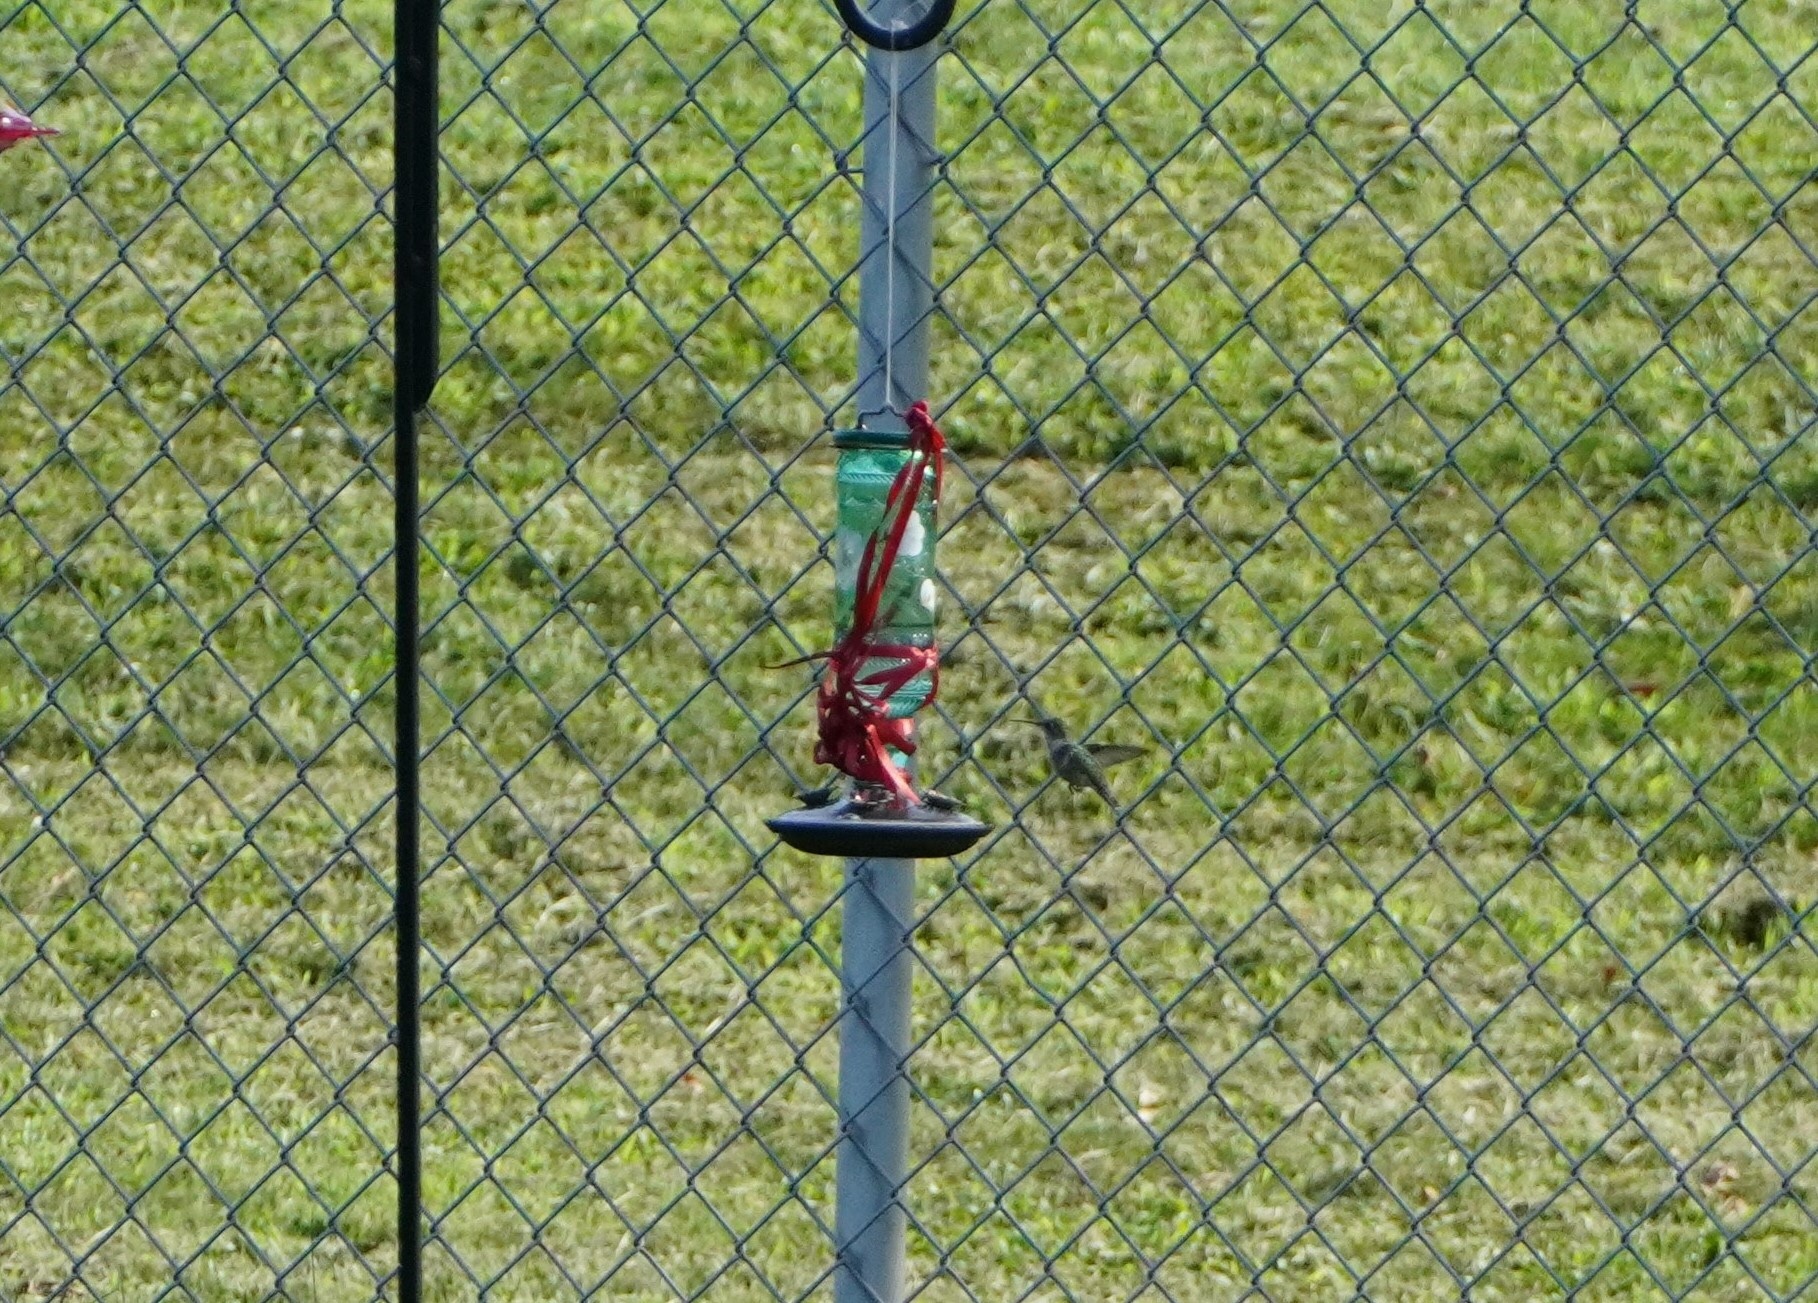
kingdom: Animalia
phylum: Chordata
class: Aves
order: Apodiformes
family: Trochilidae
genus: Archilochus
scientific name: Archilochus colubris
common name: Ruby-throated hummingbird
